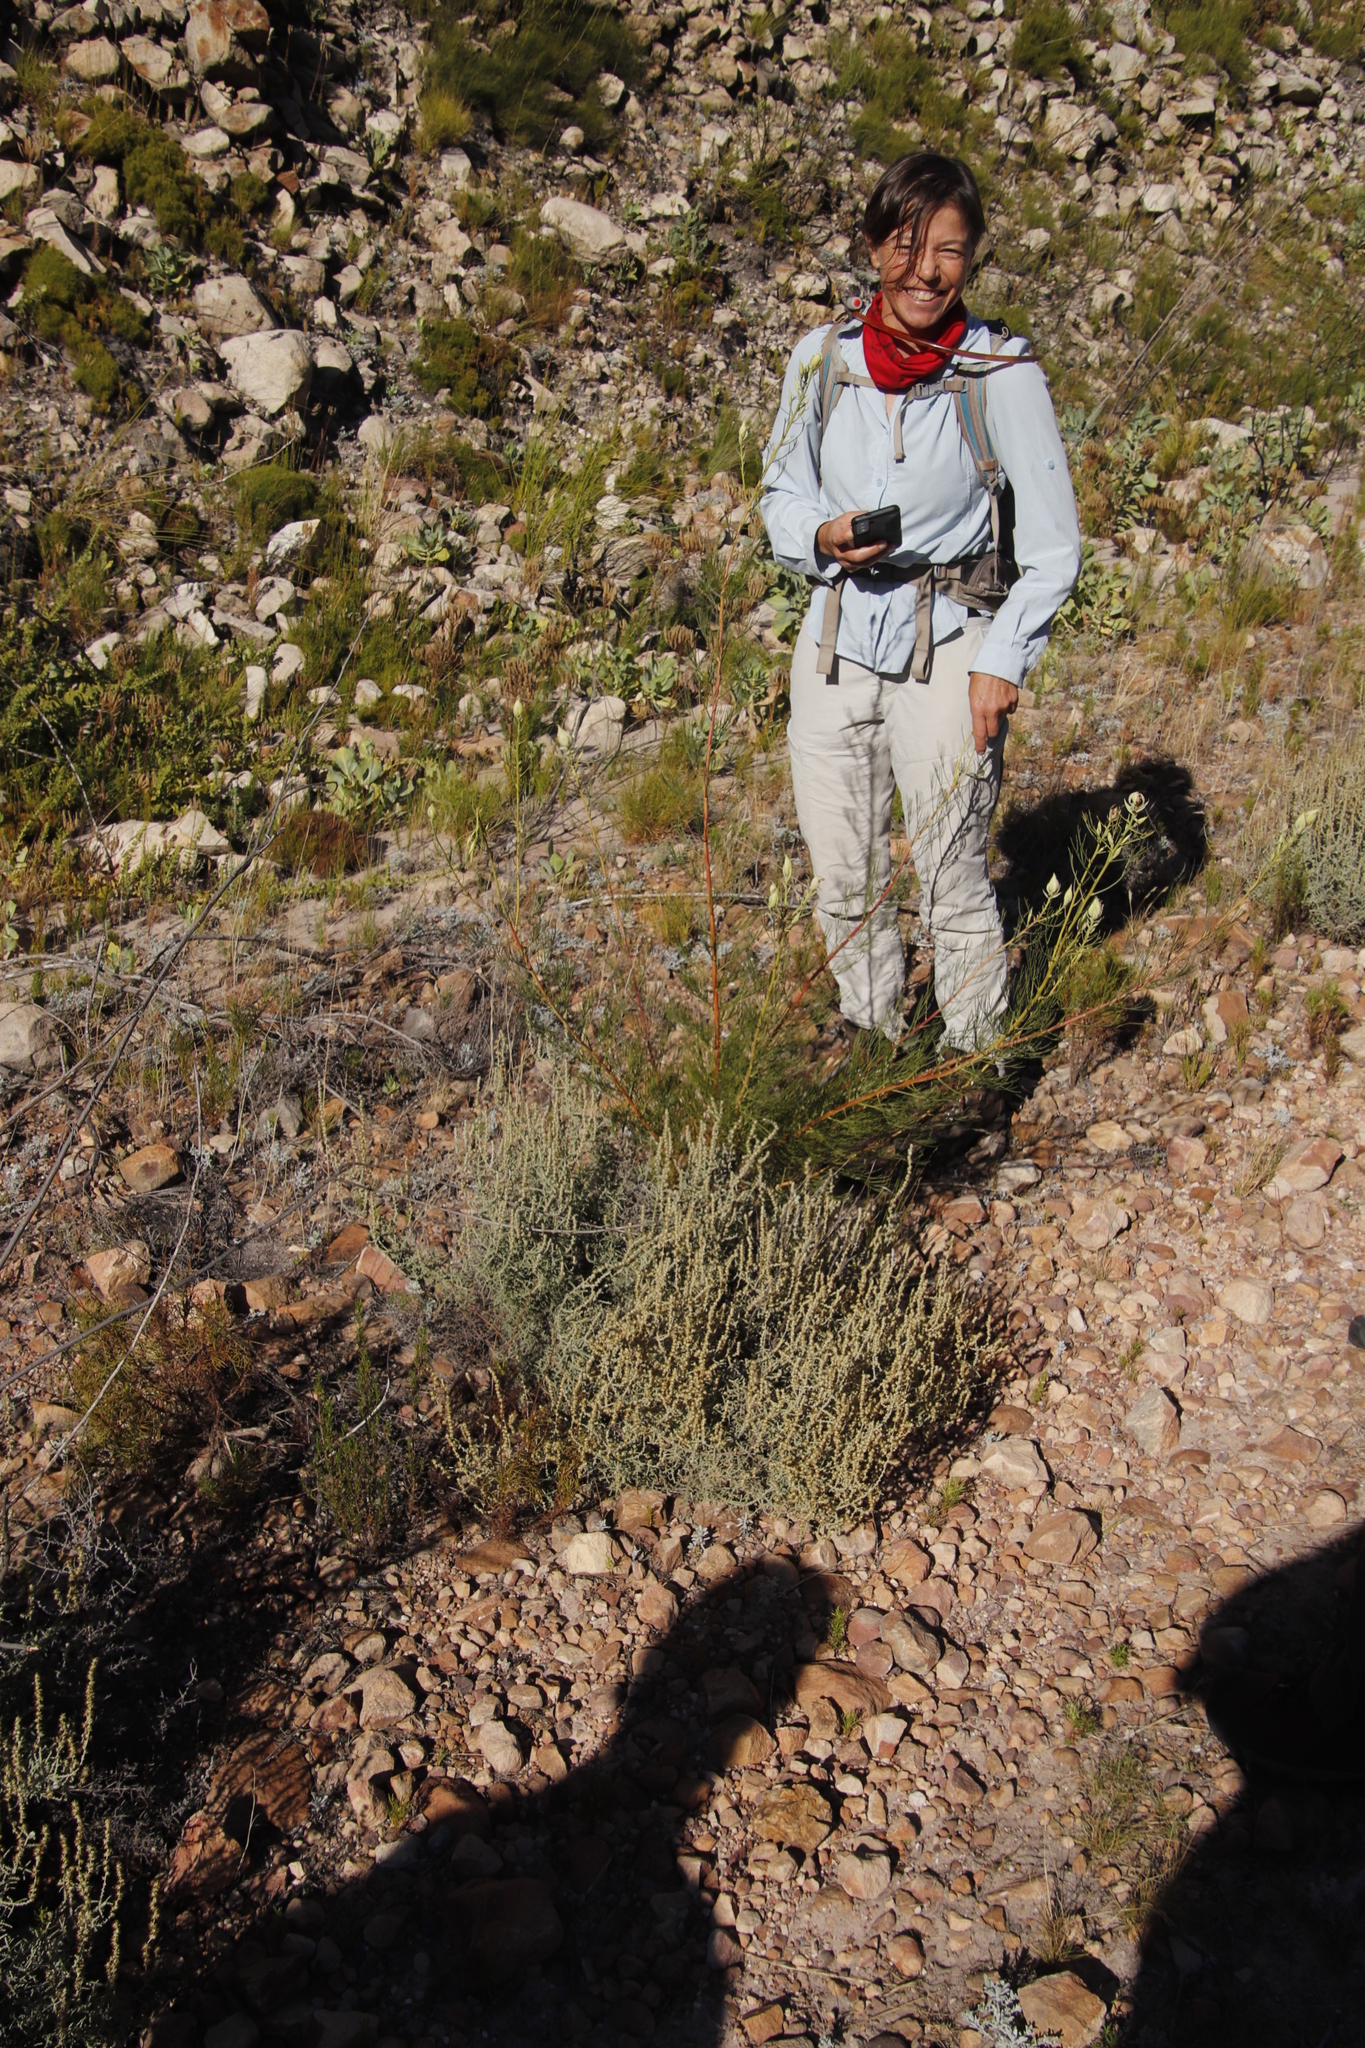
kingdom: Plantae
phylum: Tracheophyta
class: Magnoliopsida
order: Proteales
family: Proteaceae
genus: Serruria
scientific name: Serruria florida
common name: Blushing bride
